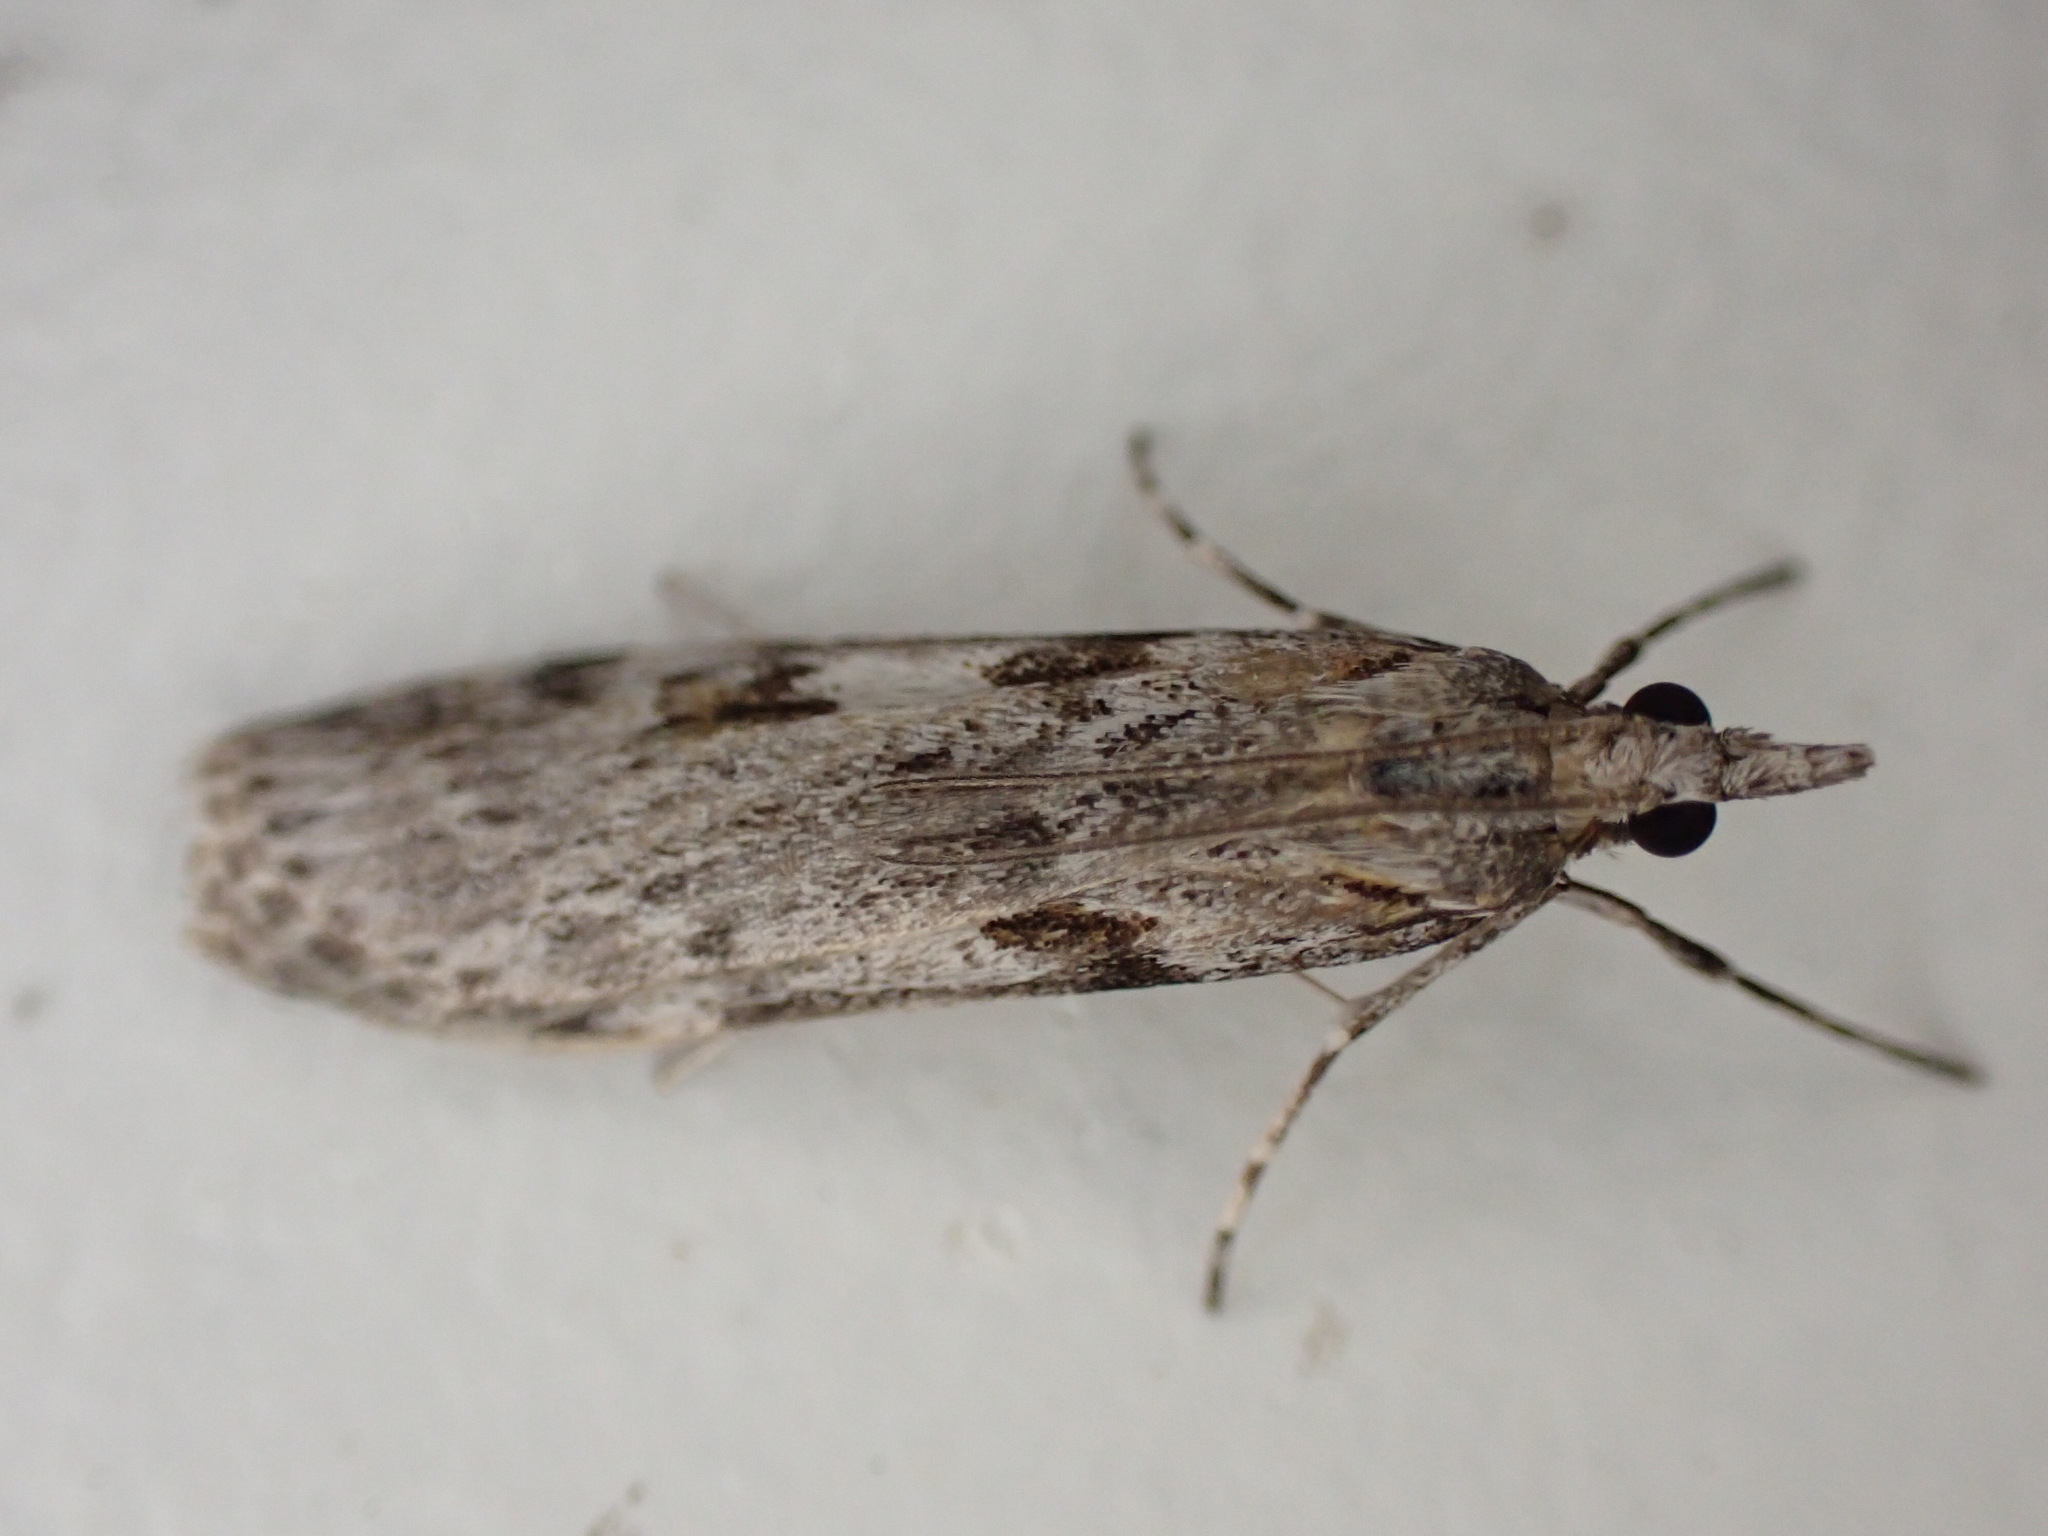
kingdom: Animalia
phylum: Arthropoda
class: Insecta
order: Lepidoptera
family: Crambidae
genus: Scoparia
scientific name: Scoparia halopis
